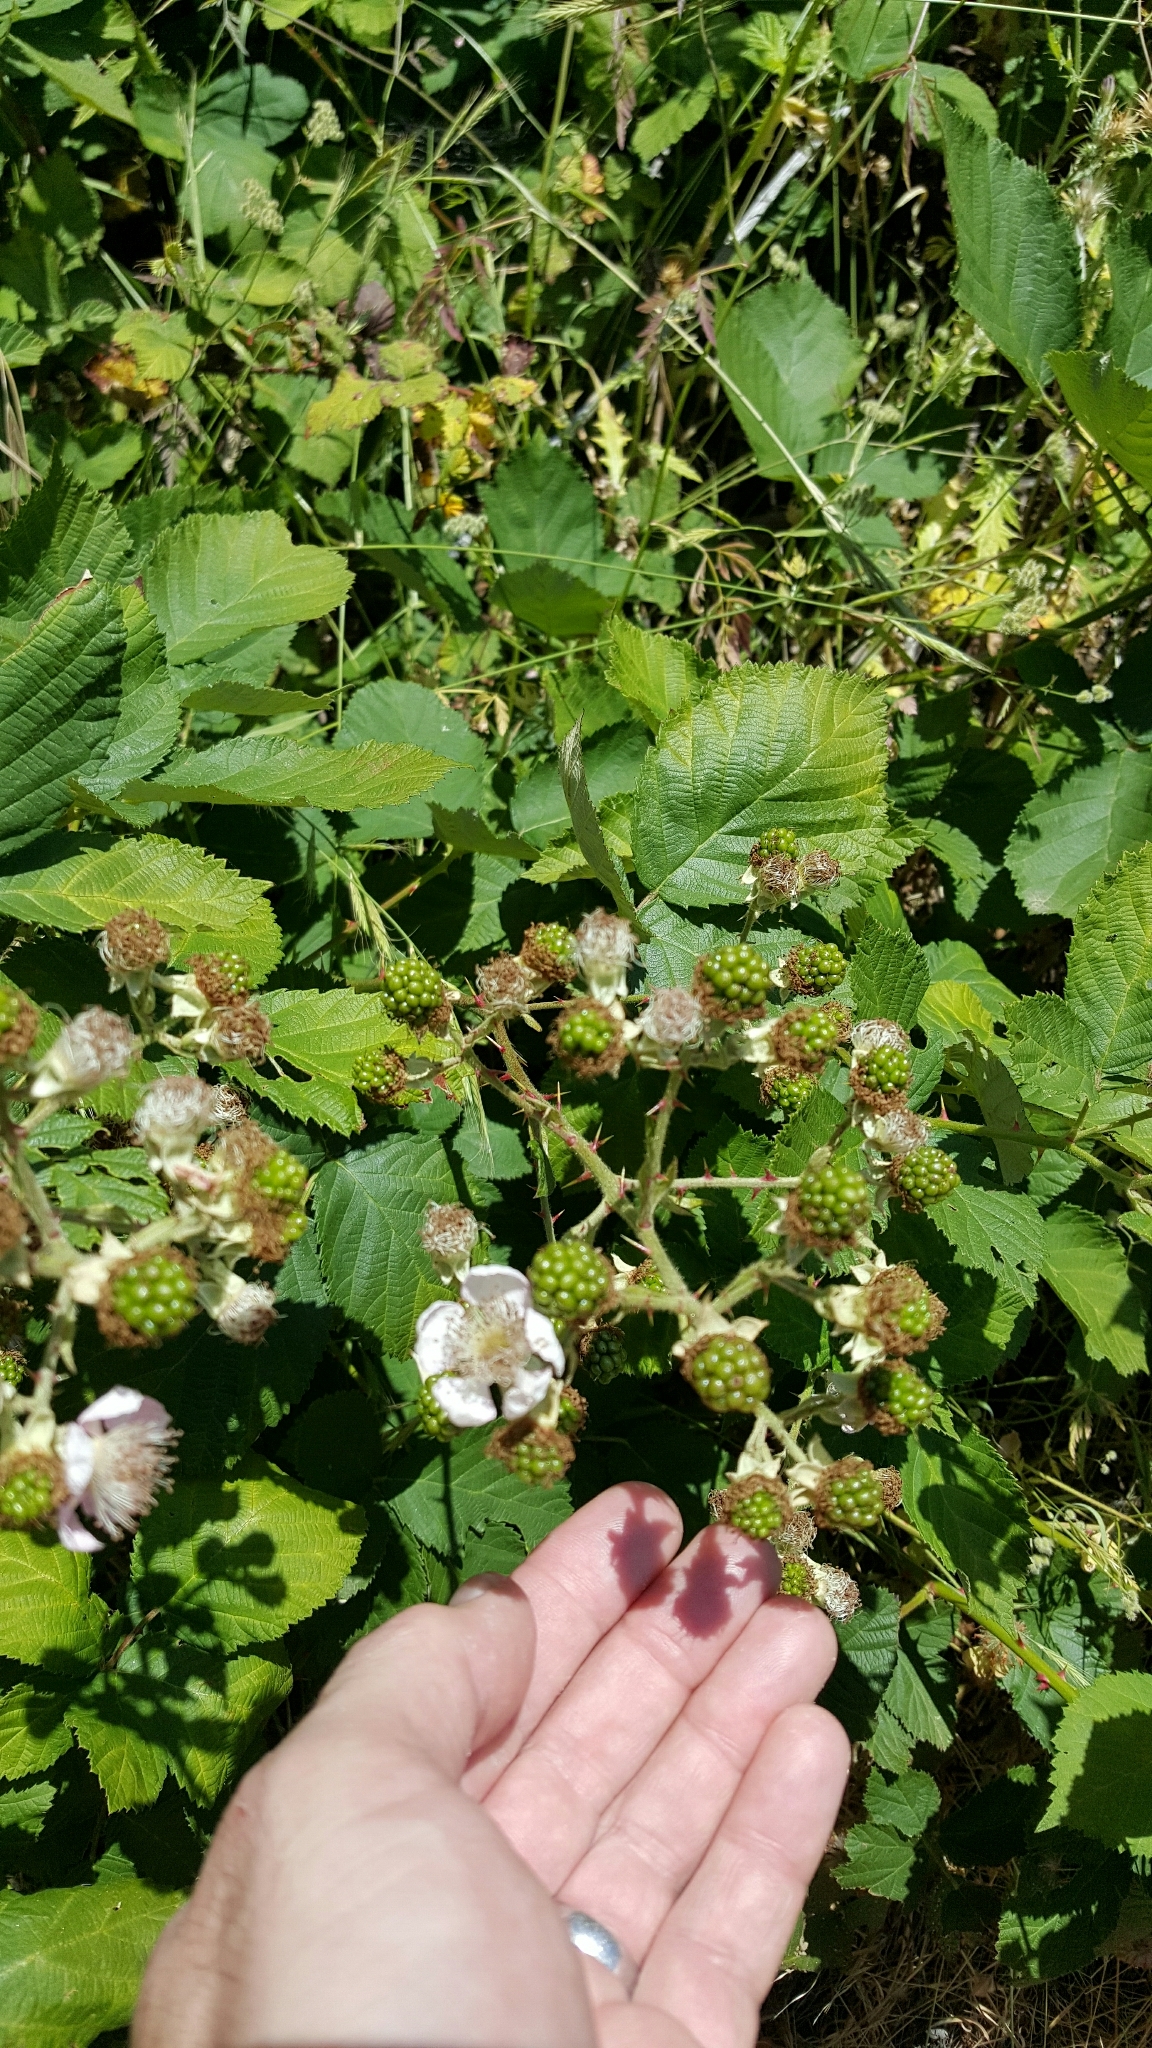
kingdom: Plantae
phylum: Tracheophyta
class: Magnoliopsida
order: Rosales
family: Rosaceae
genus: Rubus
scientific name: Rubus armeniacus
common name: Himalayan blackberry
